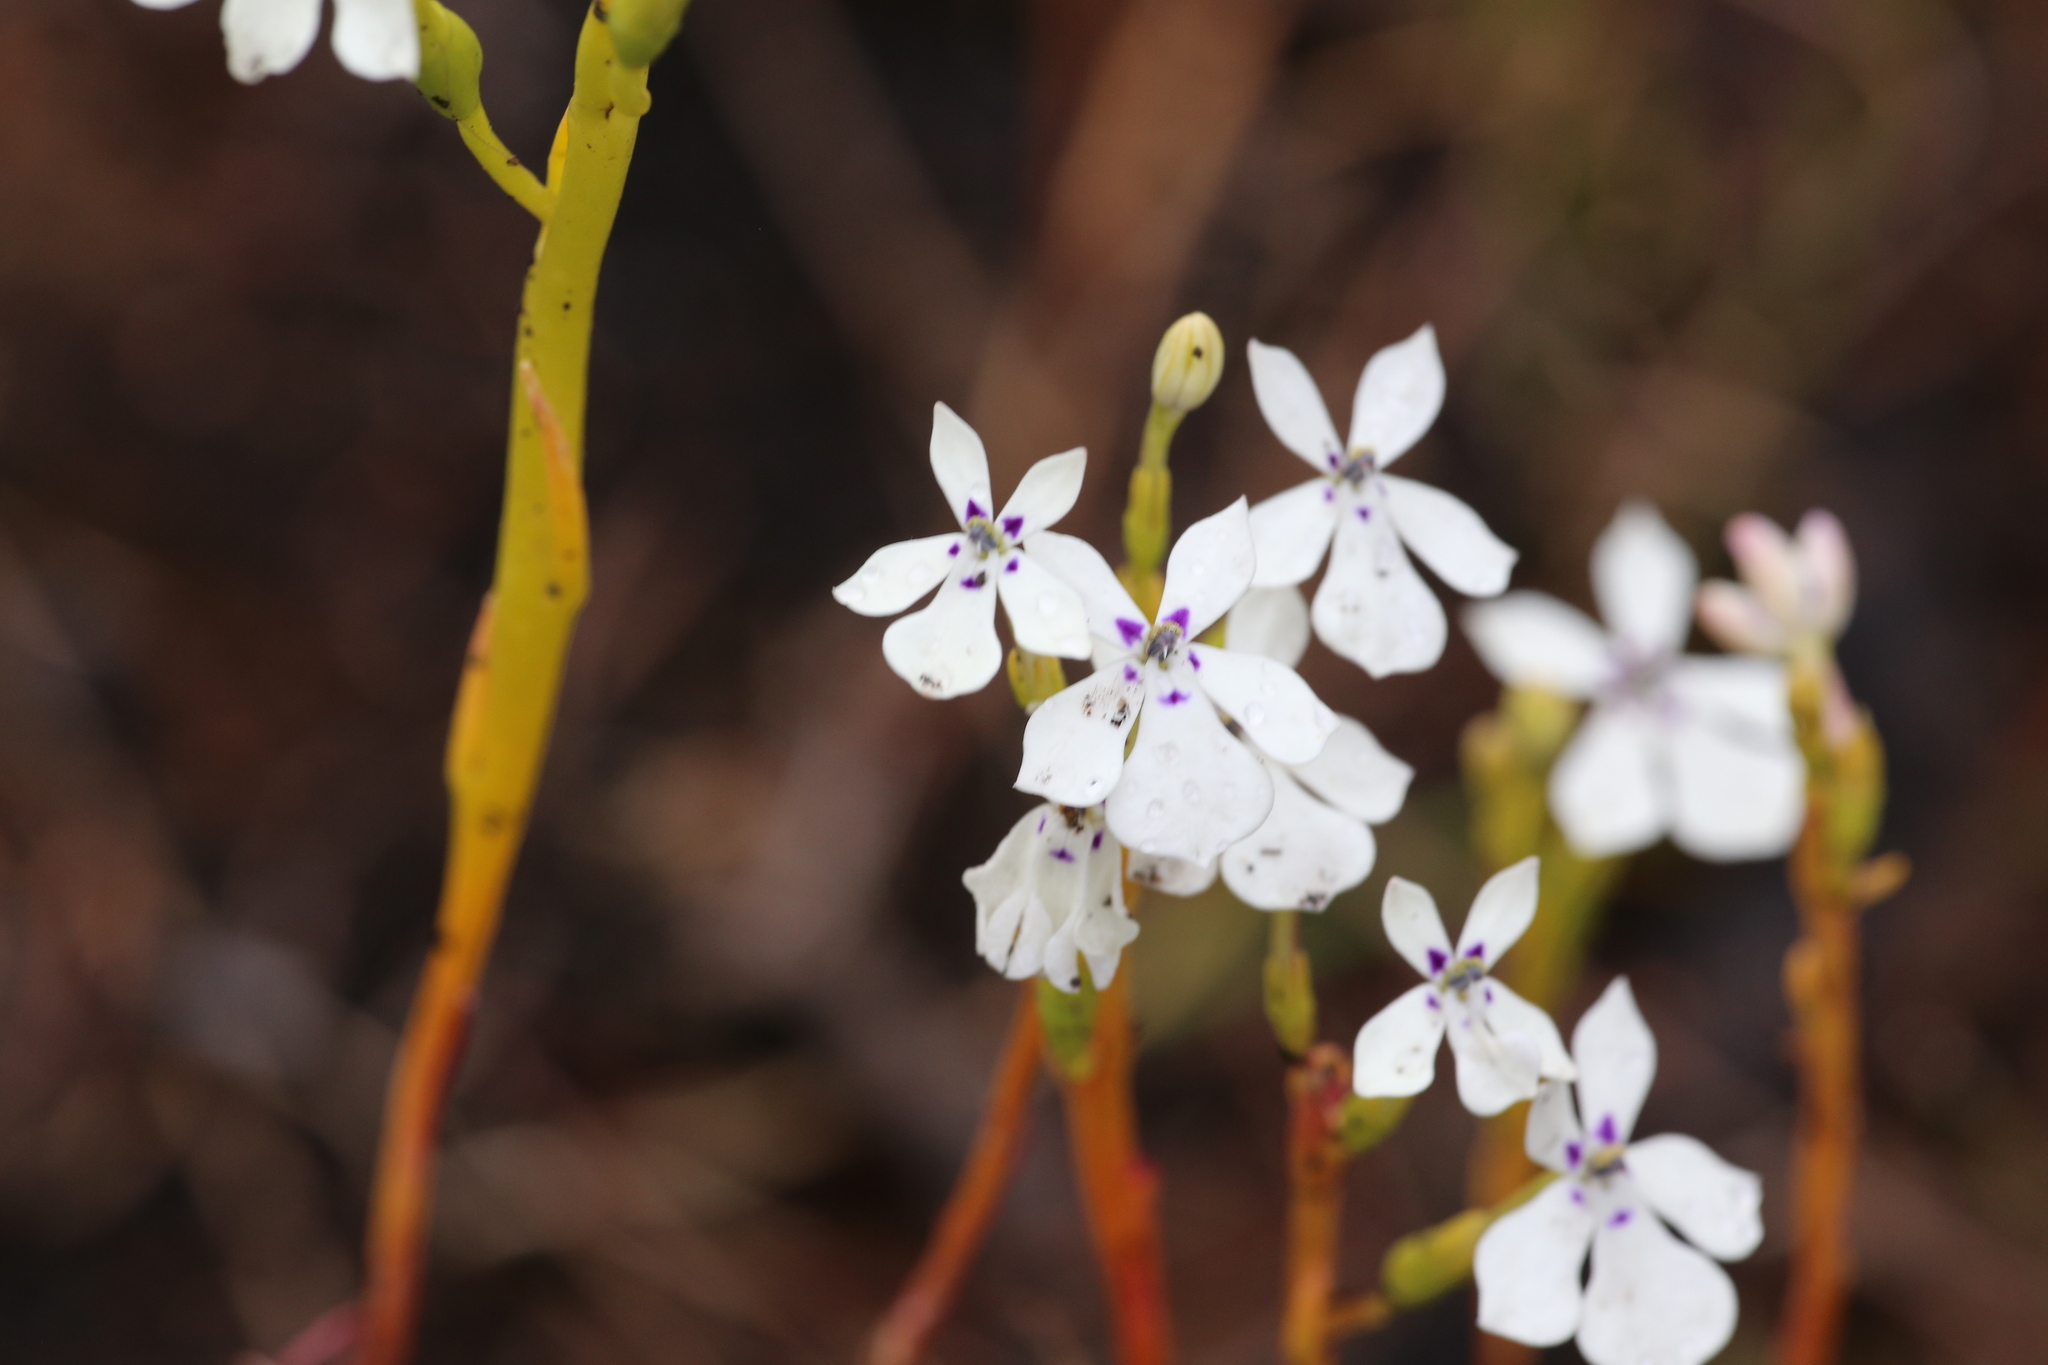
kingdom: Plantae
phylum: Tracheophyta
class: Magnoliopsida
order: Asterales
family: Campanulaceae
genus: Isotoma
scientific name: Isotoma hypocrateriformis
